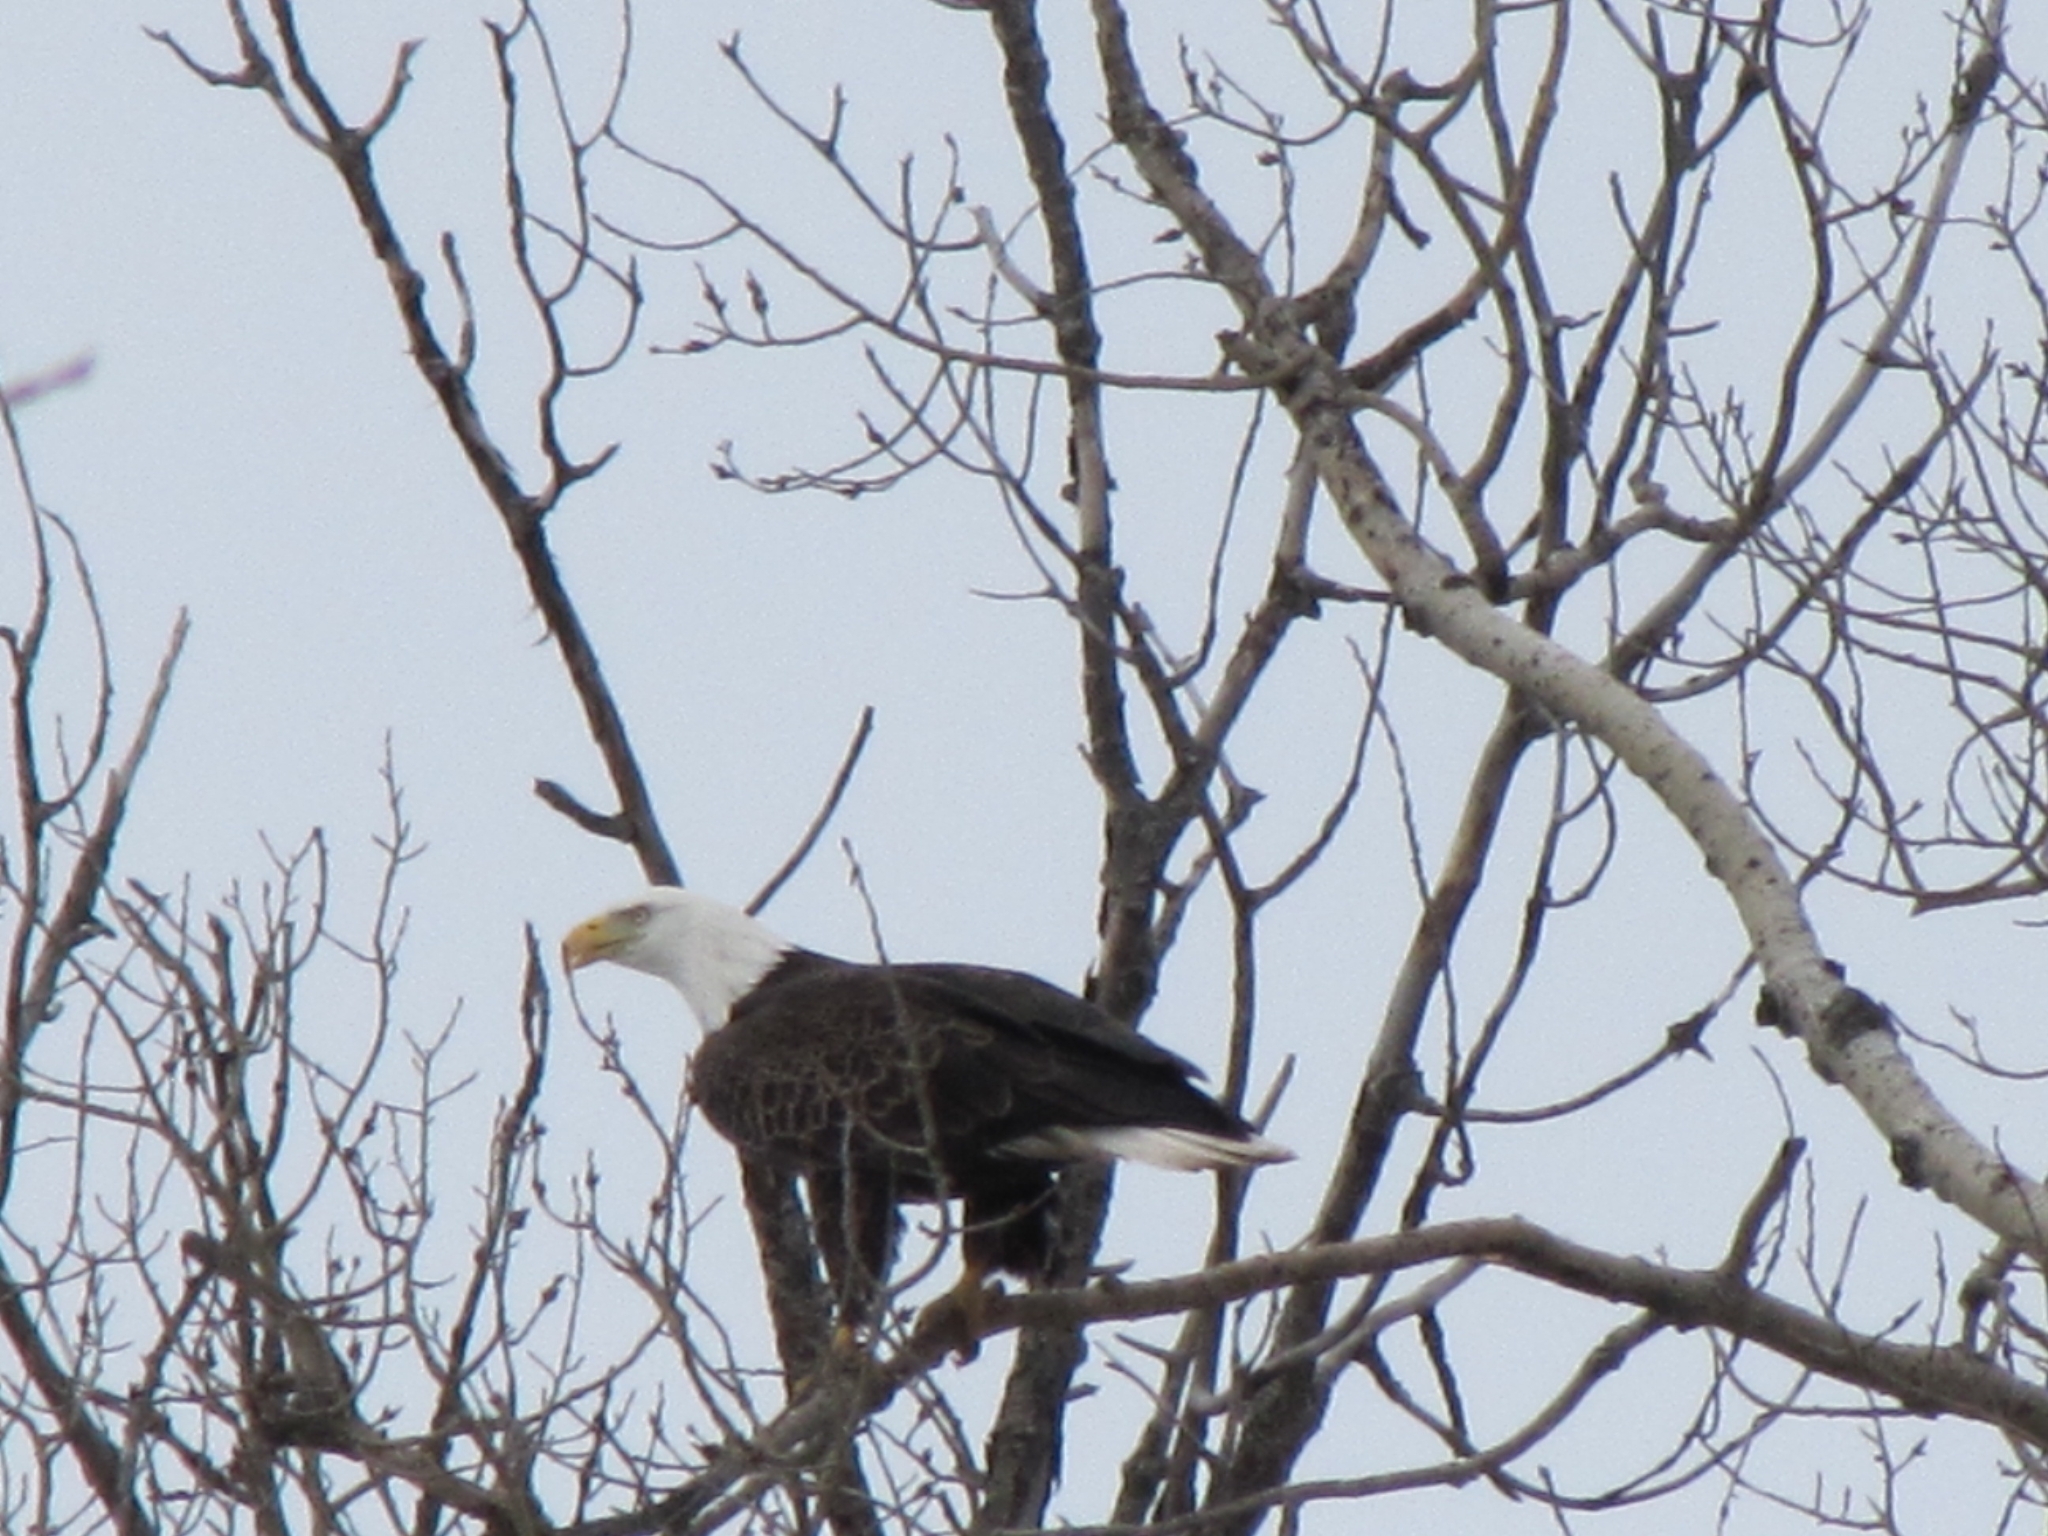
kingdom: Animalia
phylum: Chordata
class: Aves
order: Accipitriformes
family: Accipitridae
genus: Haliaeetus
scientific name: Haliaeetus leucocephalus
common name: Bald eagle
